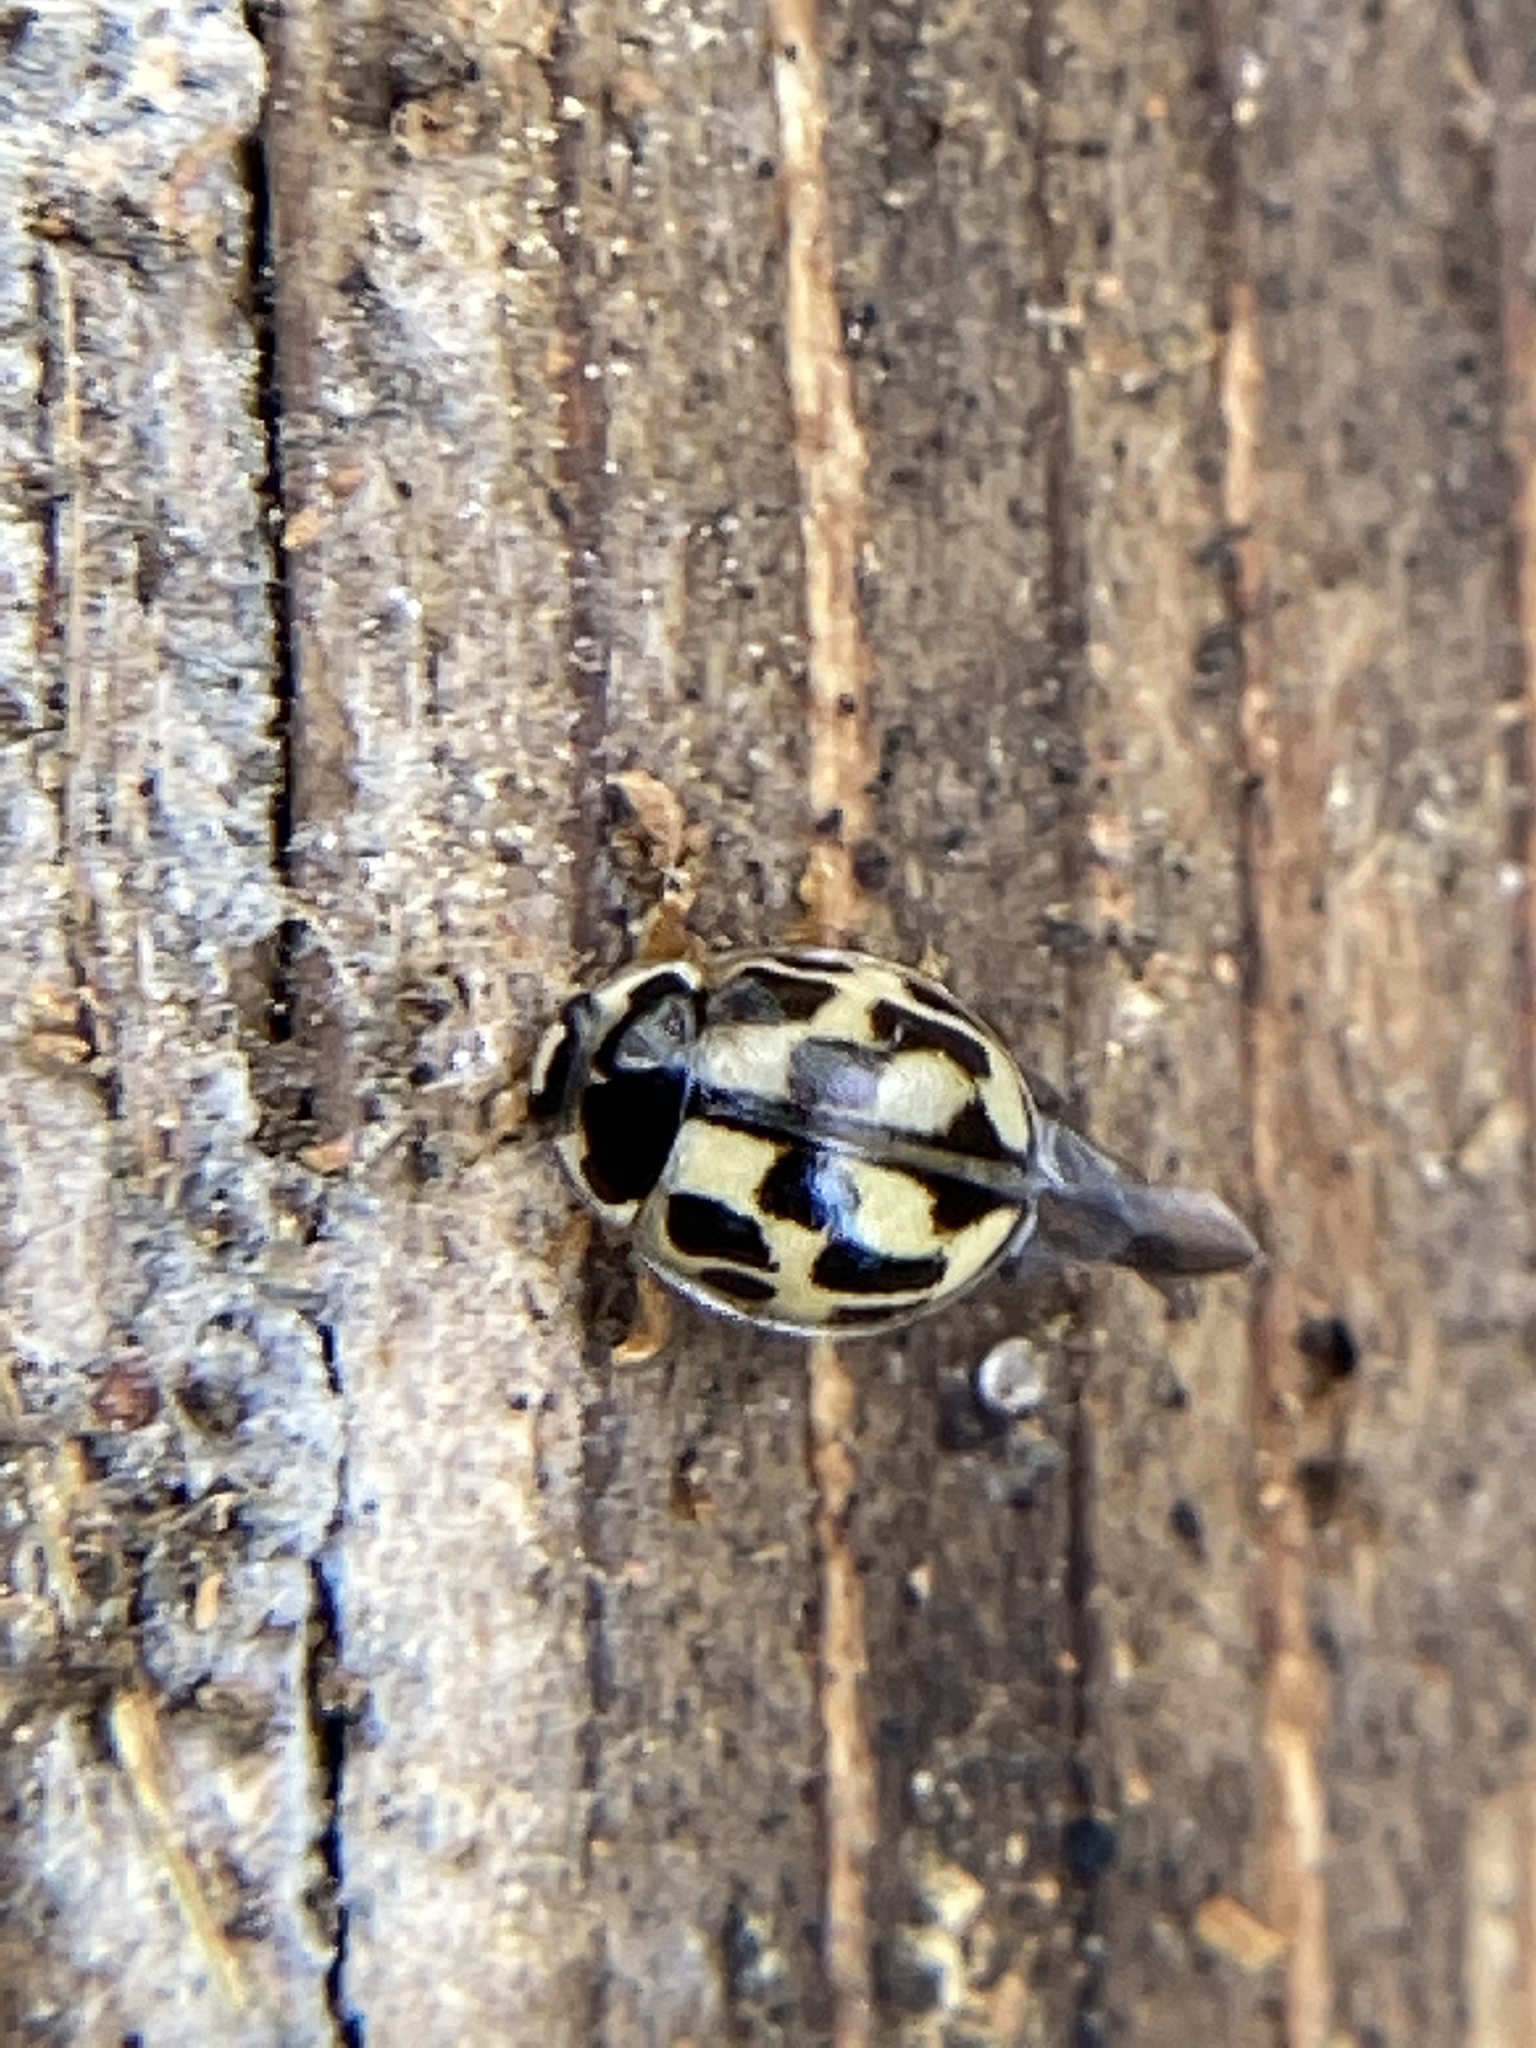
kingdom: Animalia
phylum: Arthropoda
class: Insecta
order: Coleoptera
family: Coccinellidae
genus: Propylaea
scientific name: Propylaea quatuordecimpunctata
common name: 14-spotted ladybird beetle
